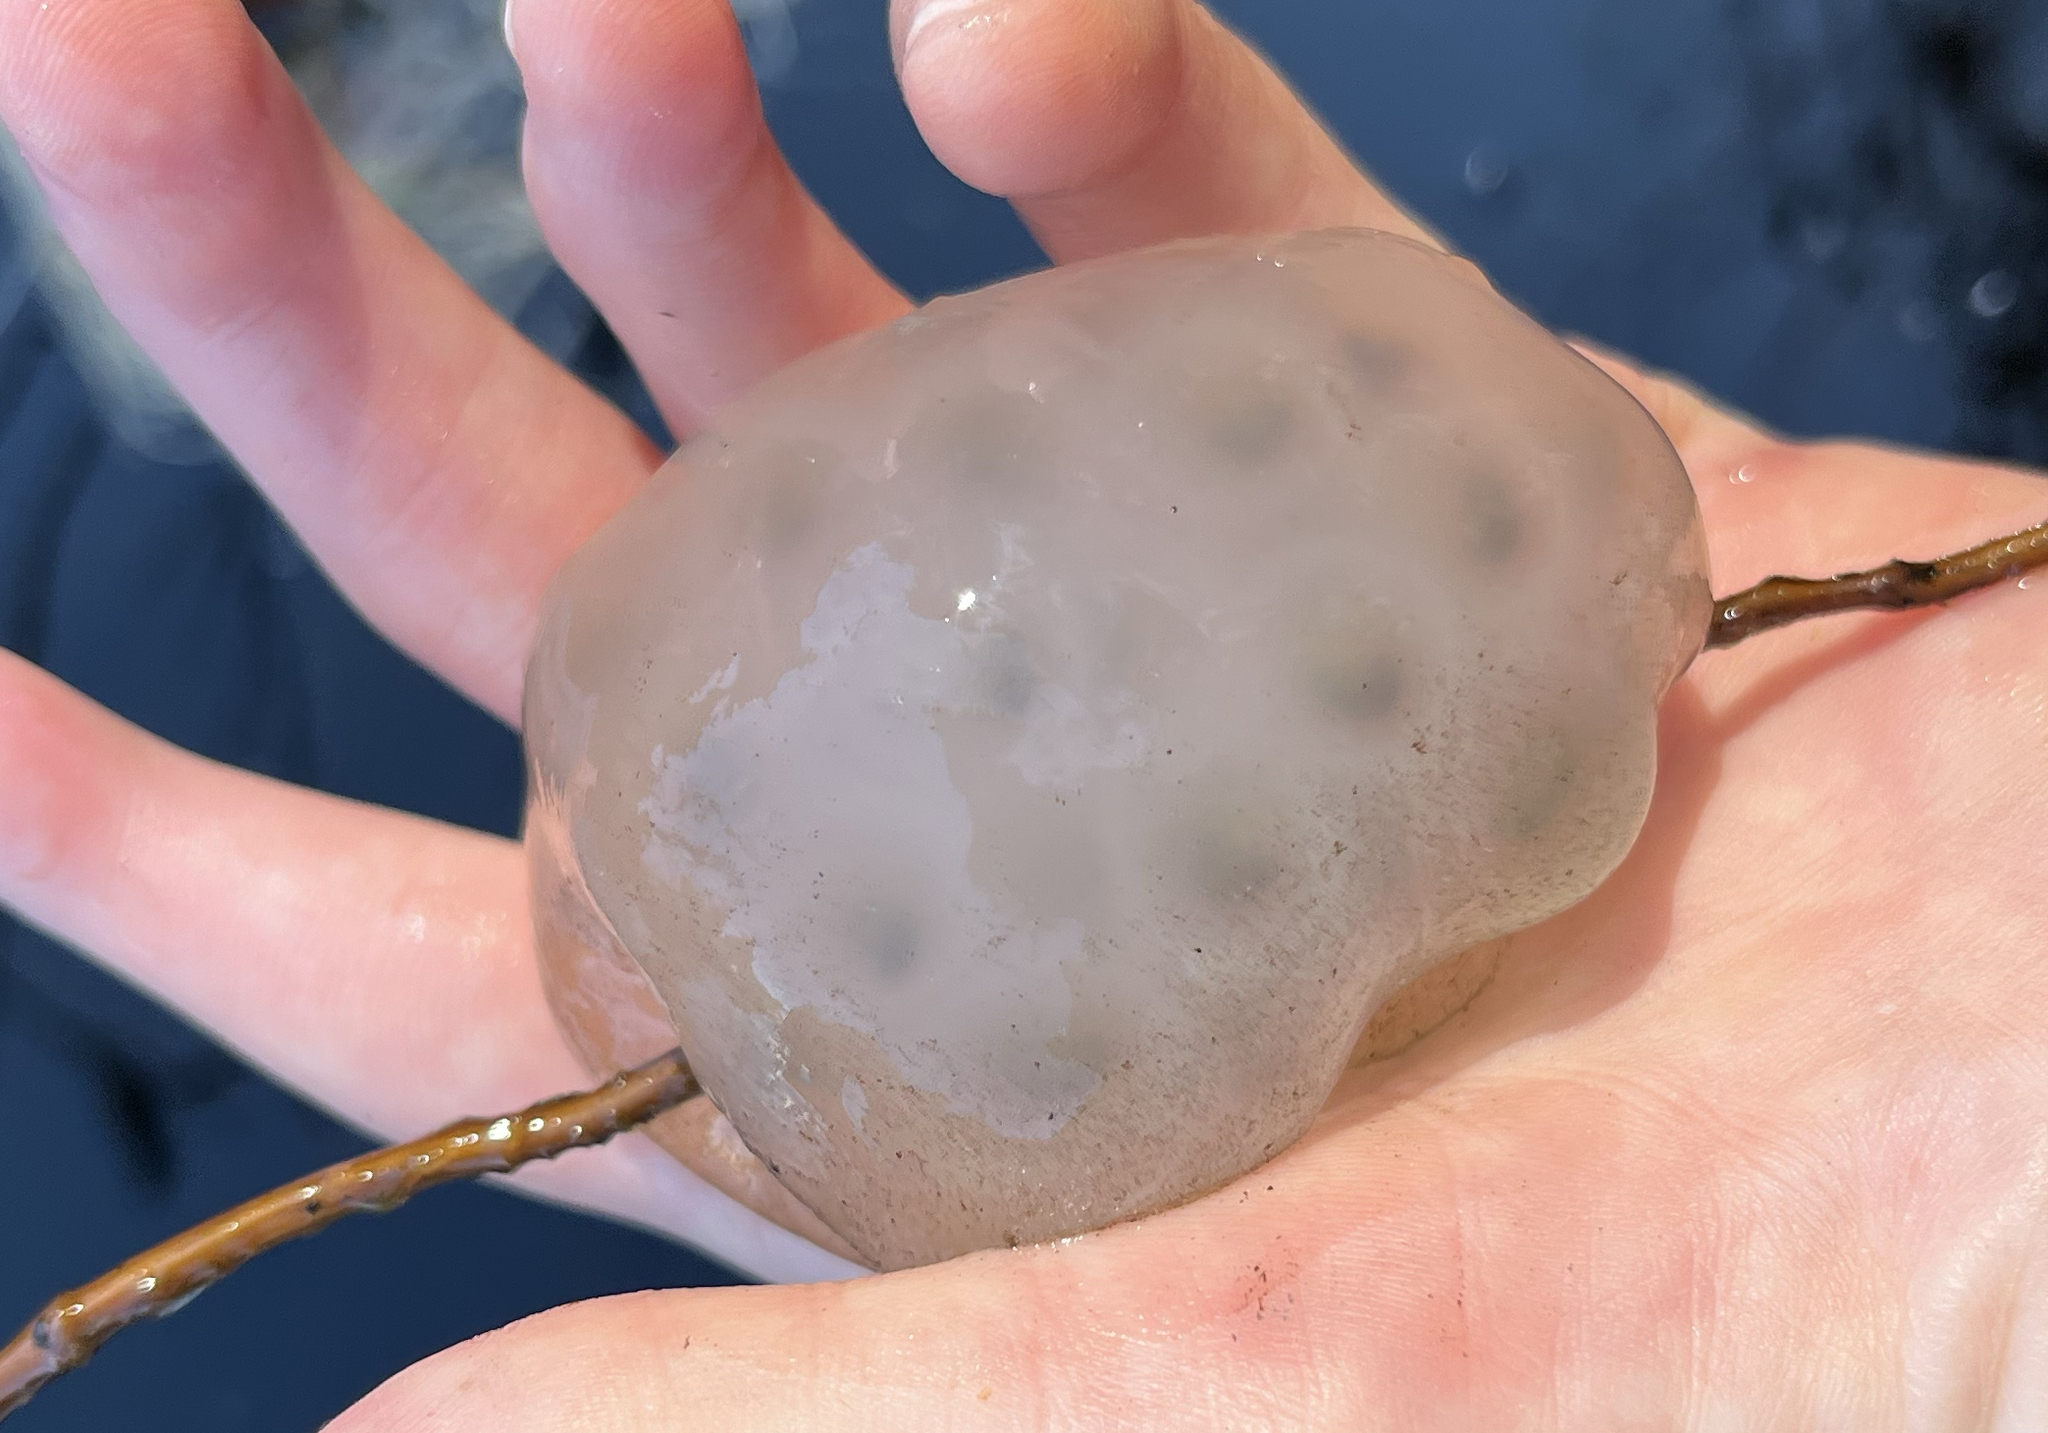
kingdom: Animalia
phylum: Chordata
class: Amphibia
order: Caudata
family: Ambystomatidae
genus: Ambystoma
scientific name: Ambystoma maculatum
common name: Spotted salamander
